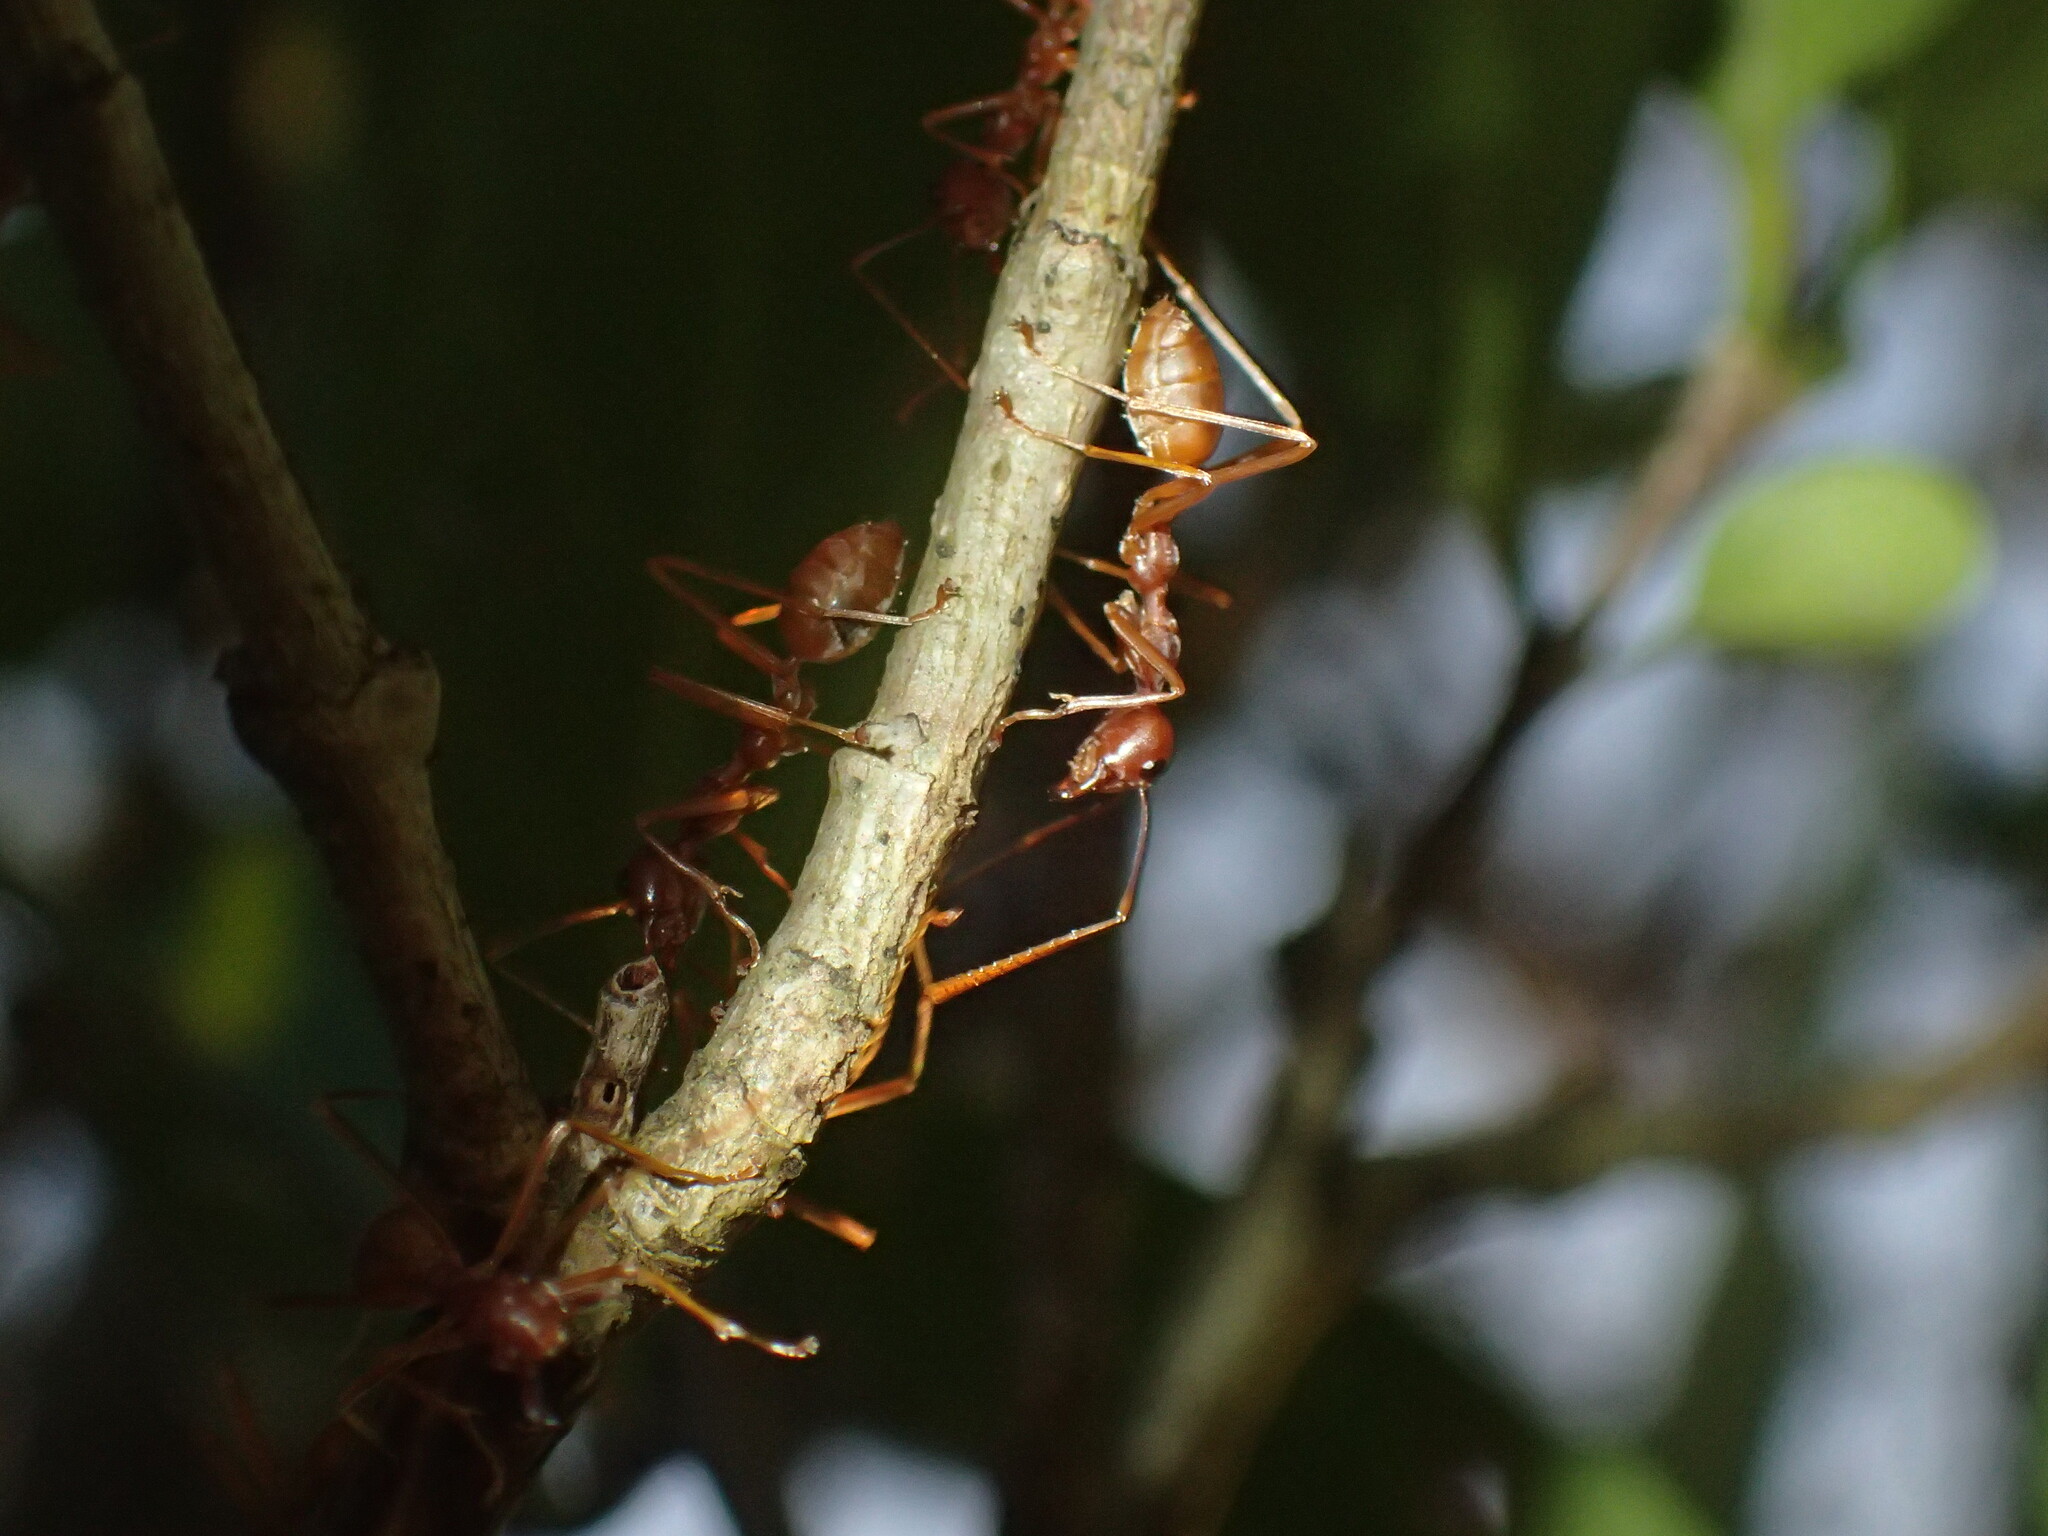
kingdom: Animalia
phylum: Arthropoda
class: Insecta
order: Hymenoptera
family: Formicidae
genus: Oecophylla
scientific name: Oecophylla longinoda
